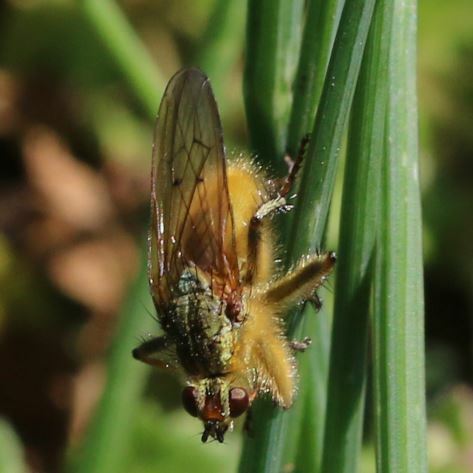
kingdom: Animalia
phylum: Arthropoda
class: Insecta
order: Diptera
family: Scathophagidae
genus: Scathophaga
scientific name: Scathophaga stercoraria
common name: Yellow dung fly
